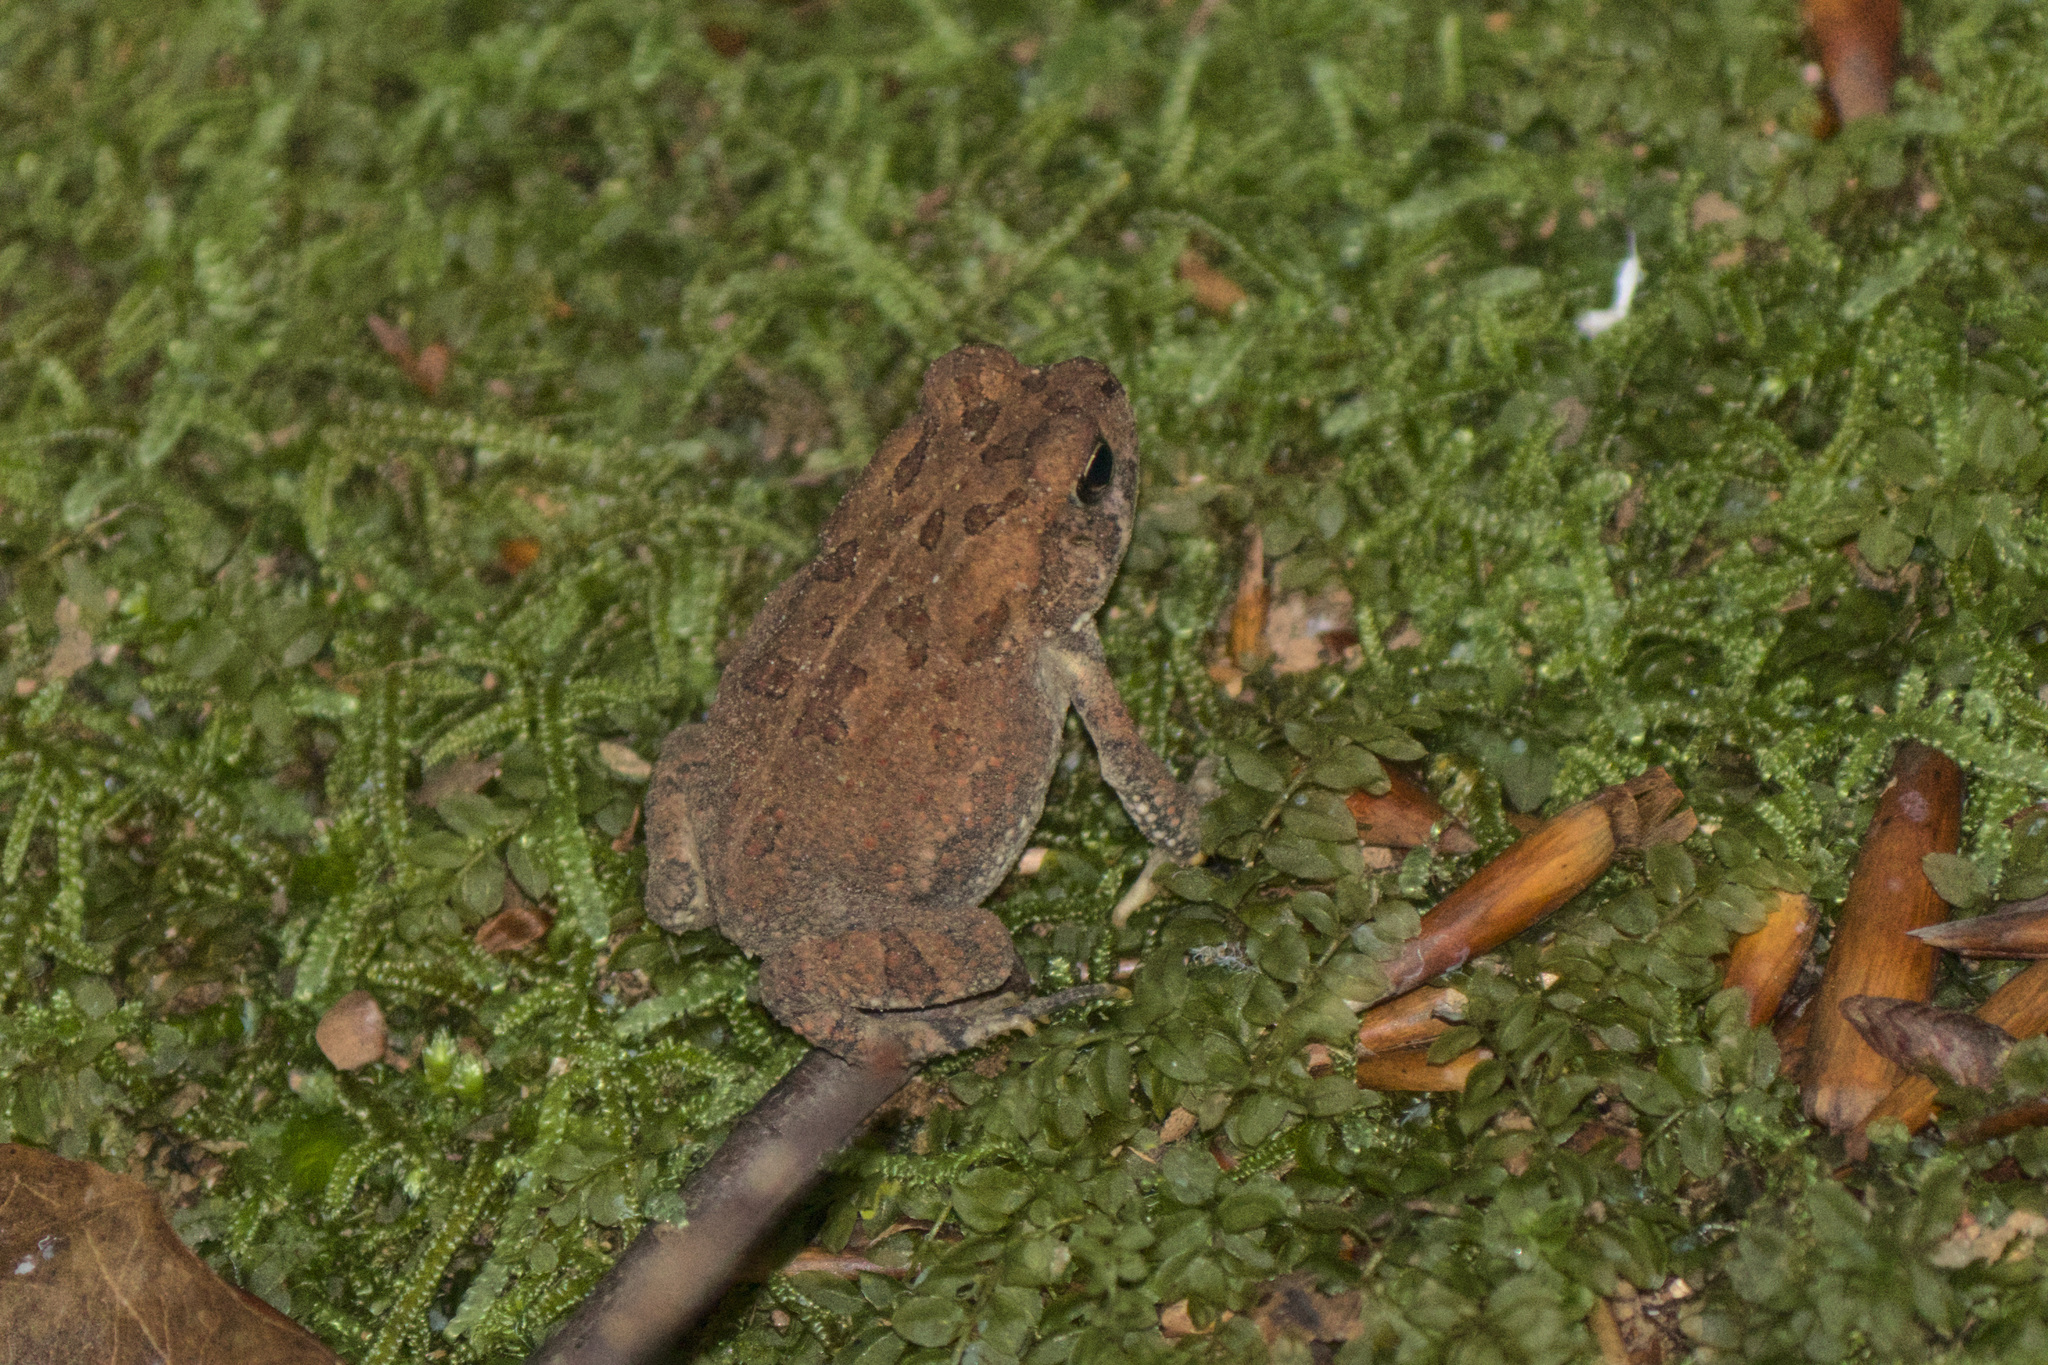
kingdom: Animalia
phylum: Chordata
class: Amphibia
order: Anura
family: Bufonidae
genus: Anaxyrus
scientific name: Anaxyrus fowleri
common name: Fowler's toad
